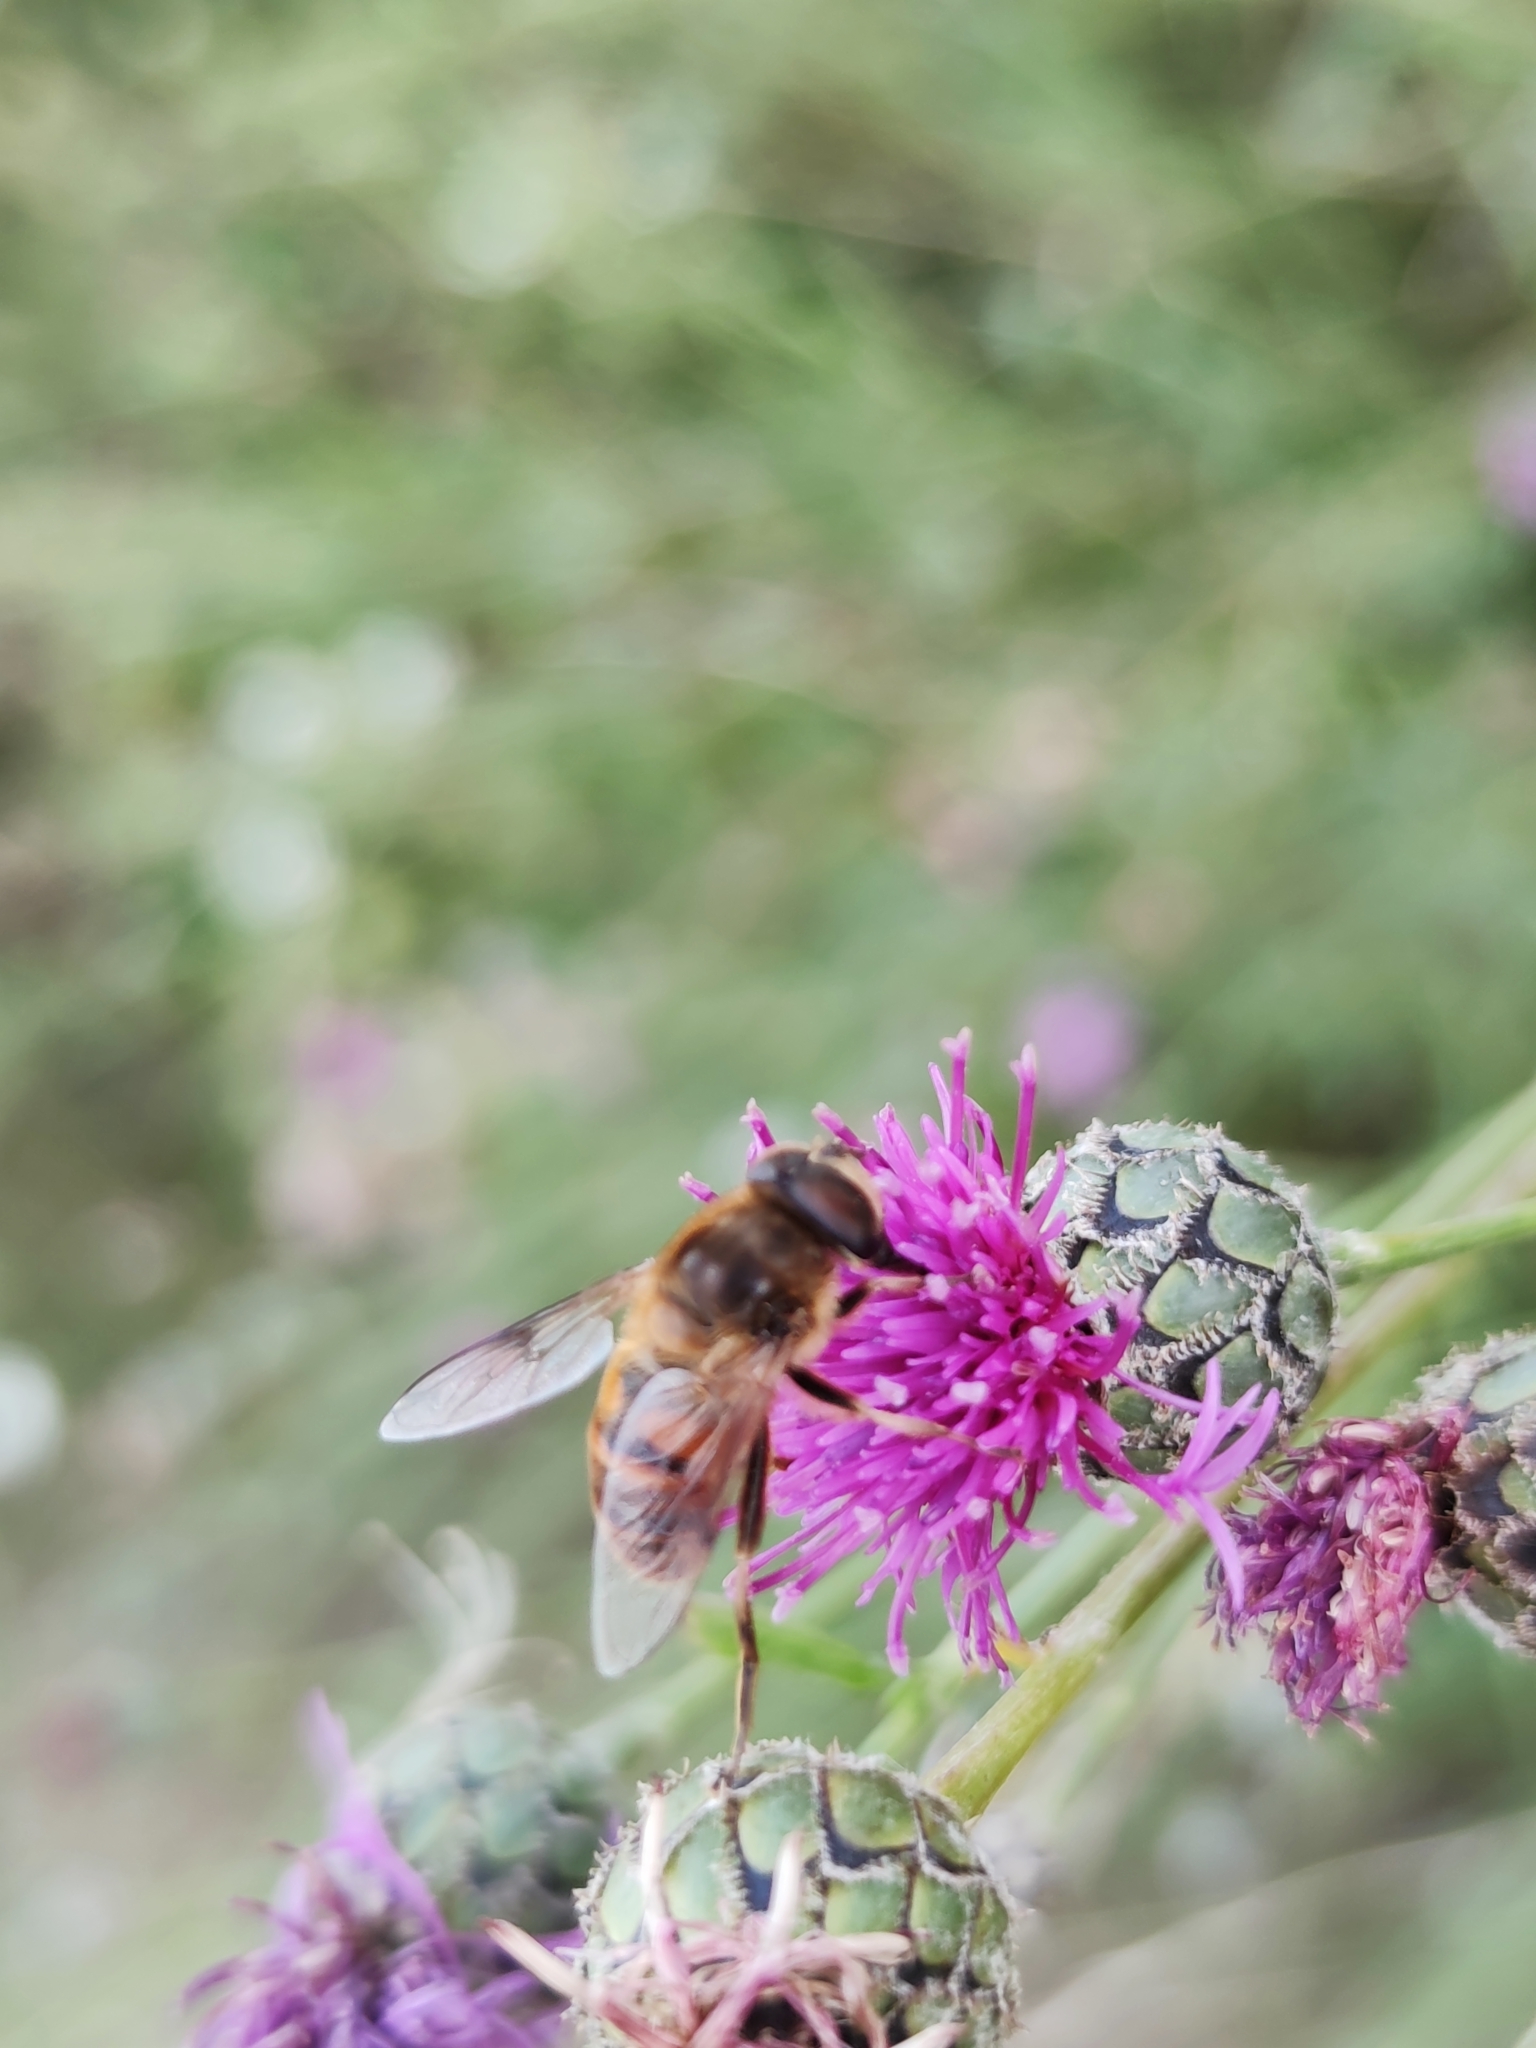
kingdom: Animalia
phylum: Arthropoda
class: Insecta
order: Diptera
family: Syrphidae
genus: Eristalis
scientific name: Eristalis tenax
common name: Drone fly
